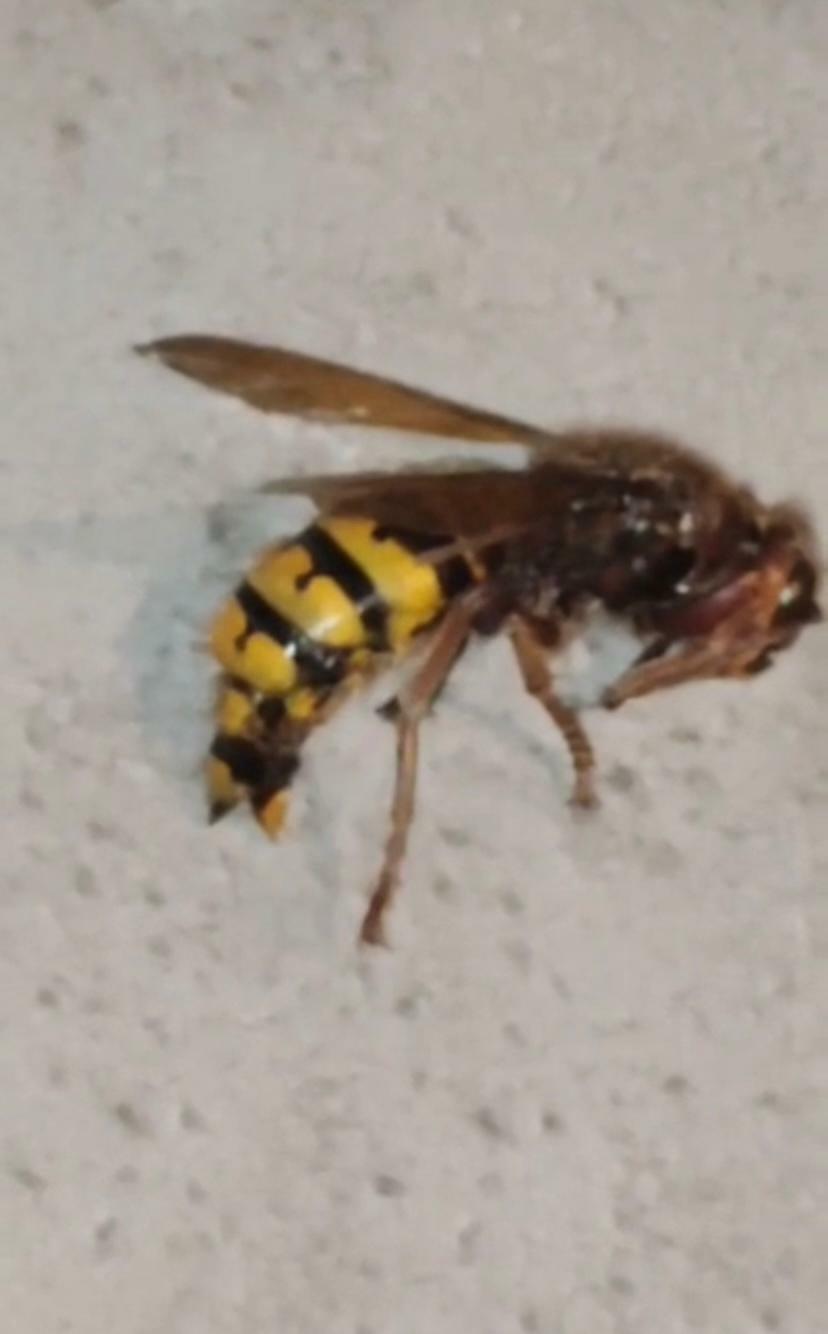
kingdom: Animalia
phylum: Arthropoda
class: Insecta
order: Hymenoptera
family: Vespidae
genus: Vespa
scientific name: Vespa crabro
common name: Hornet
